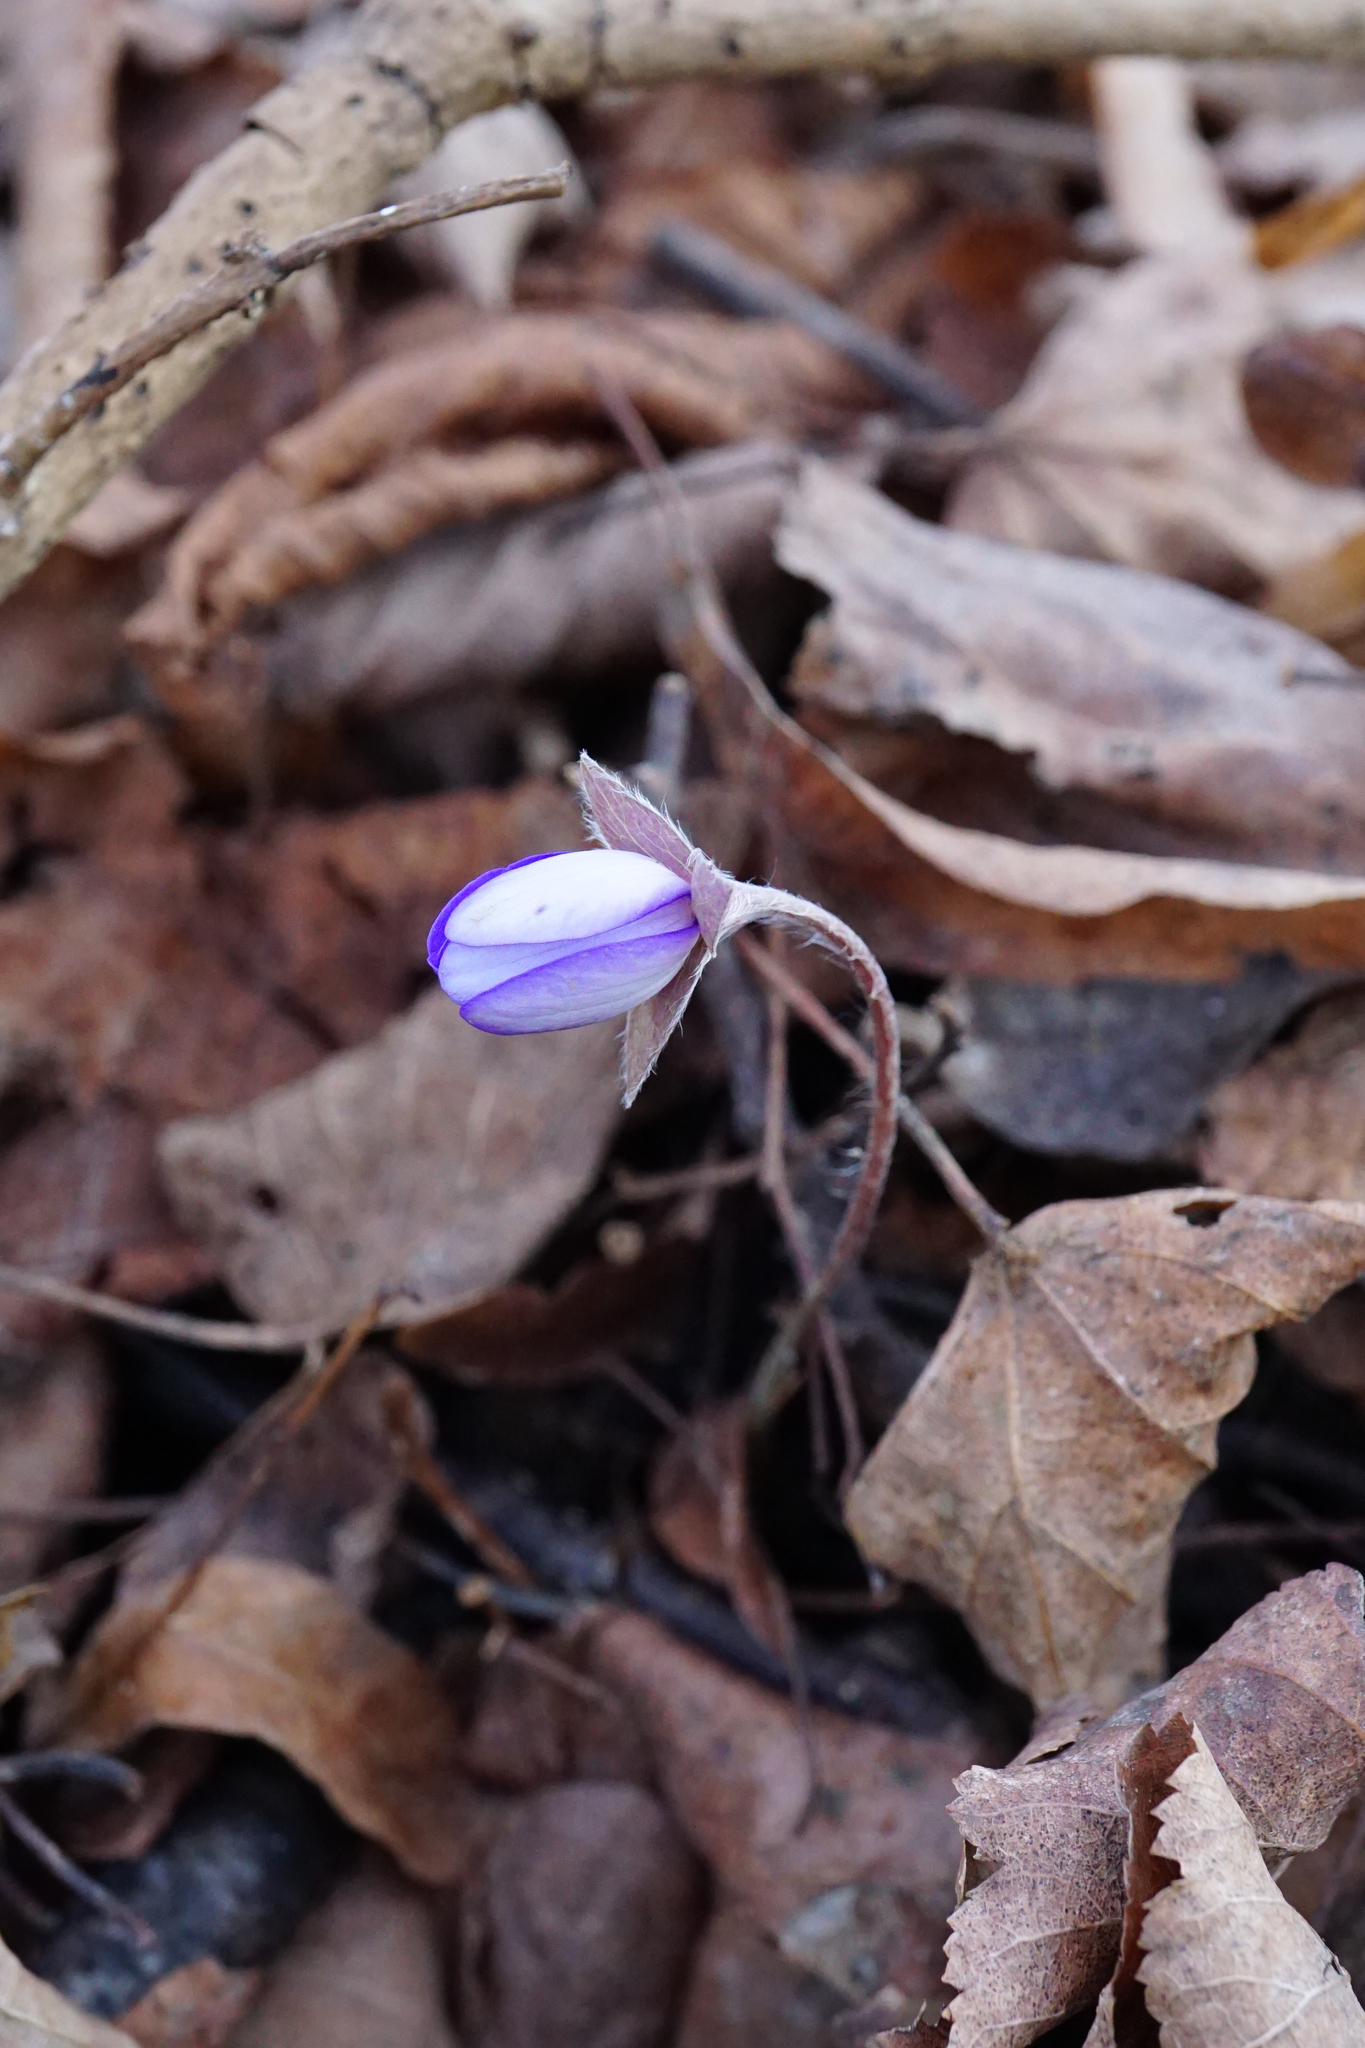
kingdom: Plantae
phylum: Tracheophyta
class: Magnoliopsida
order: Ranunculales
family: Ranunculaceae
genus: Hepatica
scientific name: Hepatica nobilis
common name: Liverleaf
